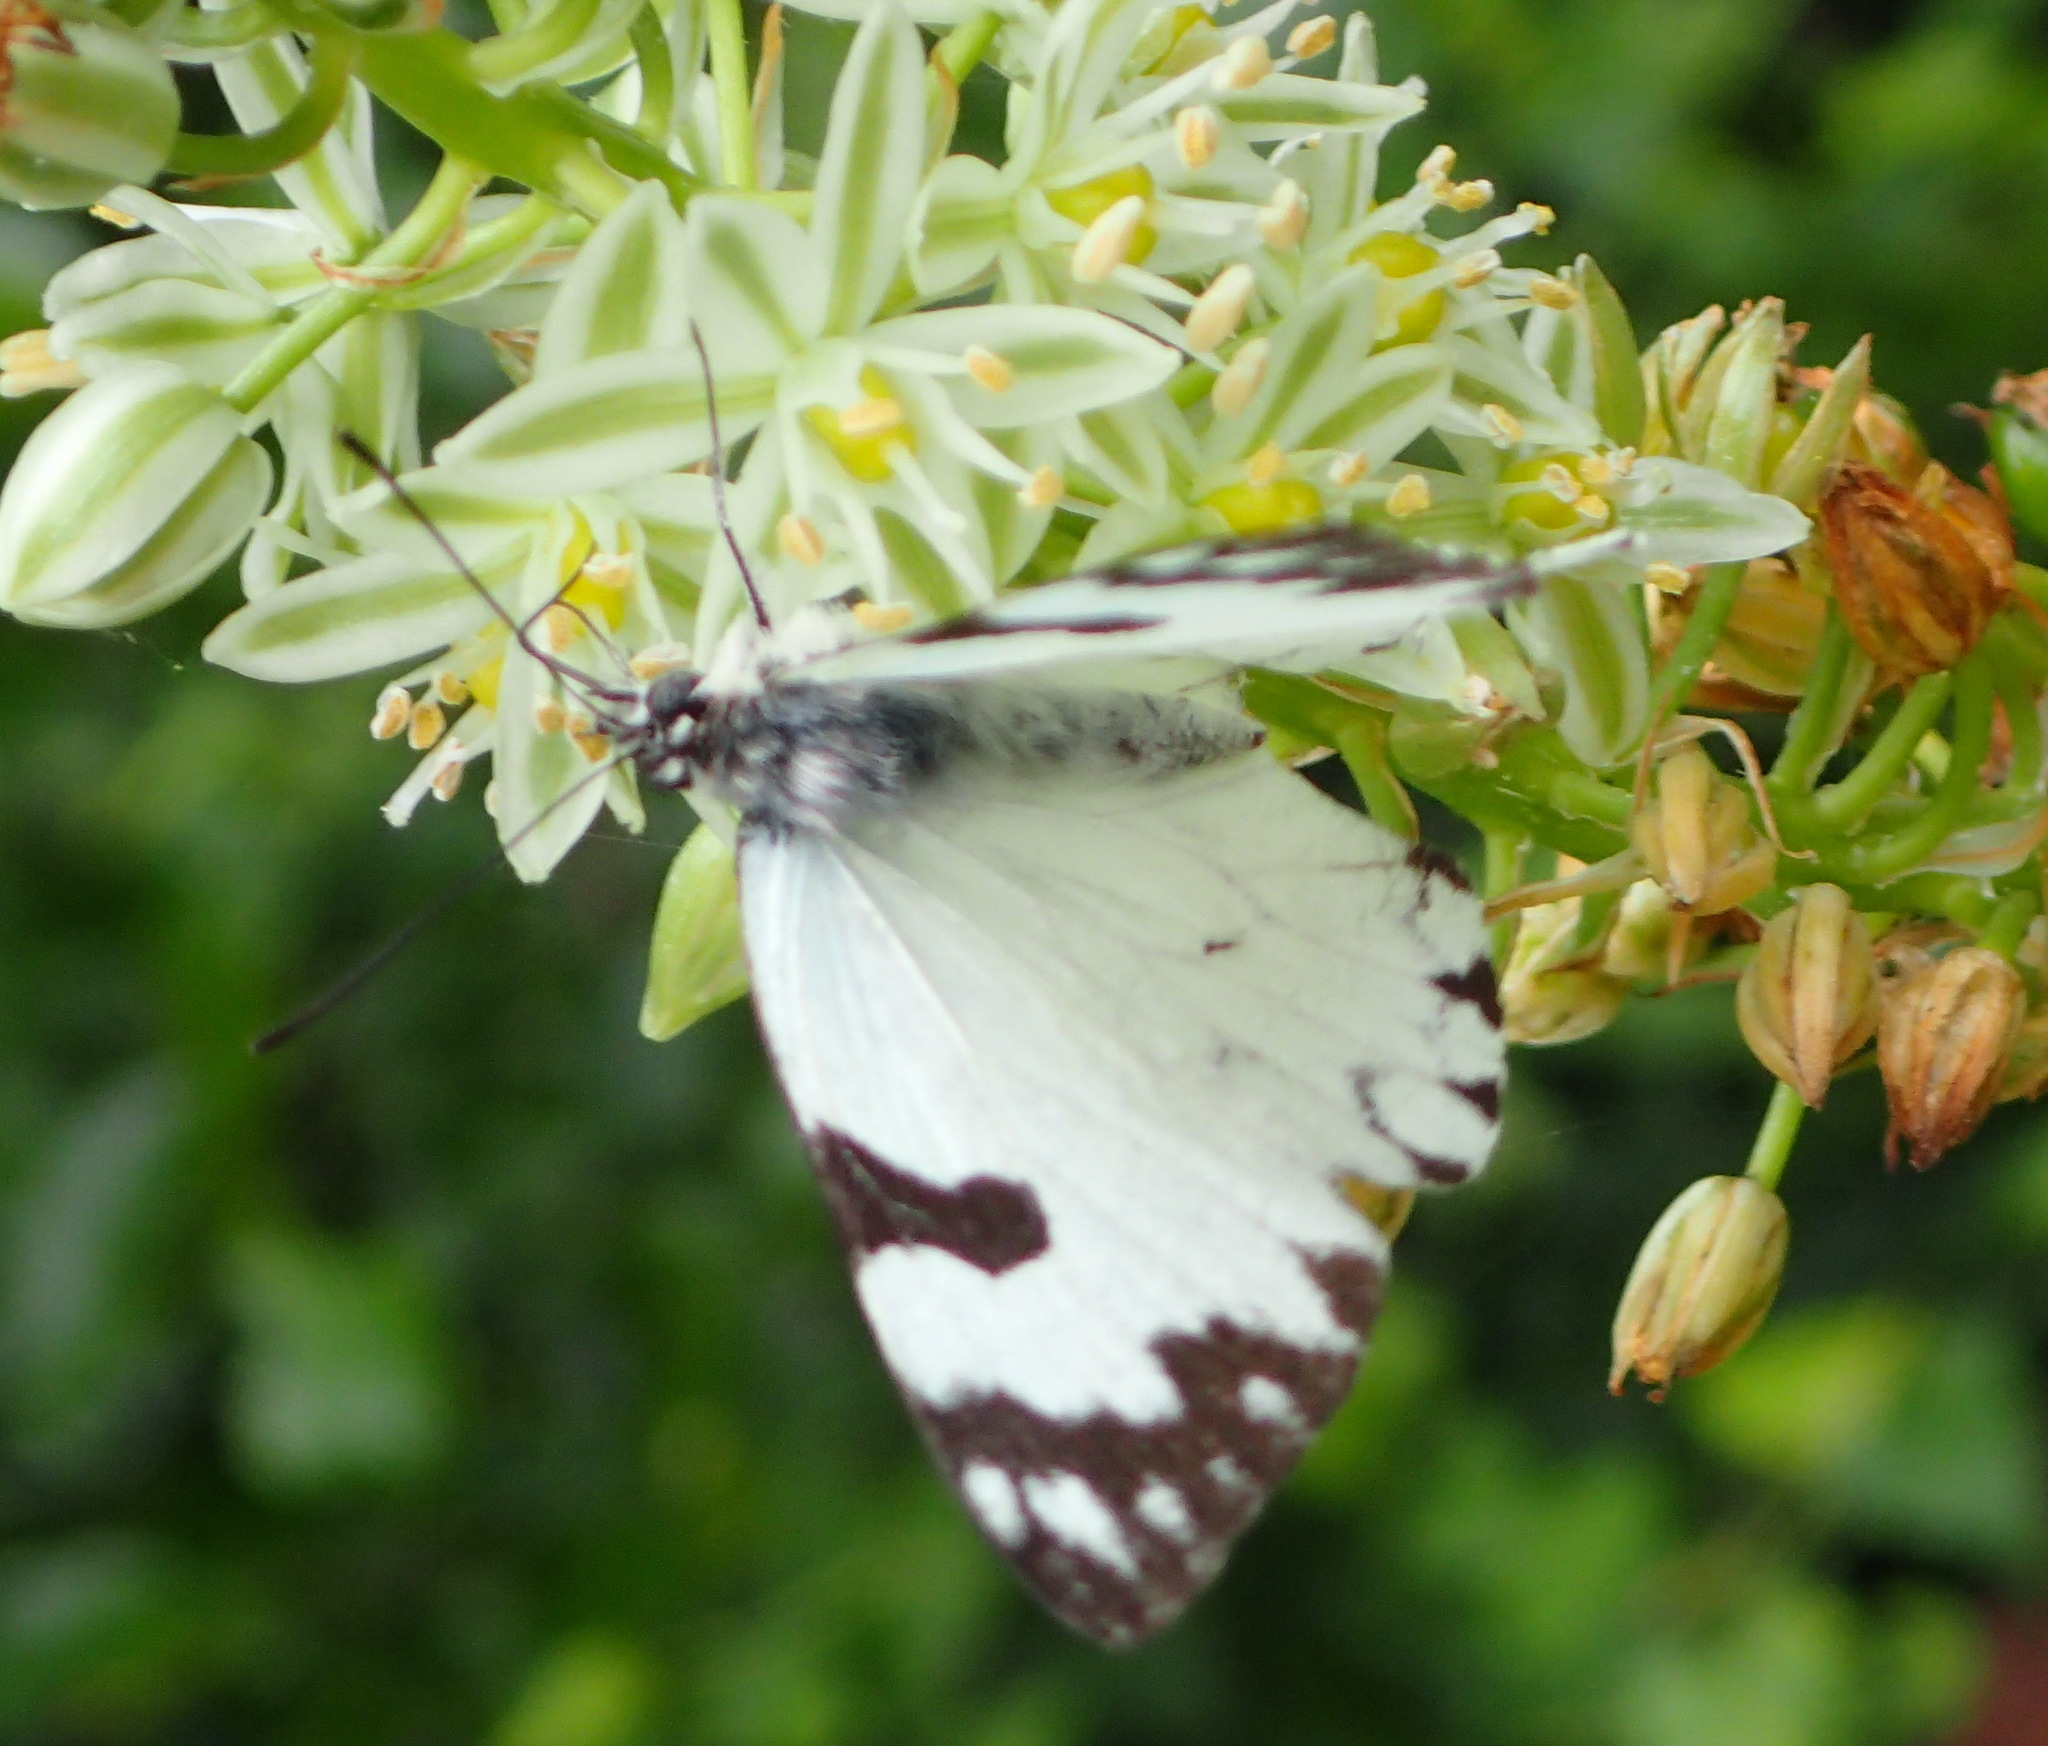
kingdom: Animalia
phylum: Arthropoda
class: Insecta
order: Lepidoptera
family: Pieridae
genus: Belenois
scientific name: Belenois zochalia
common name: Forest caper white
